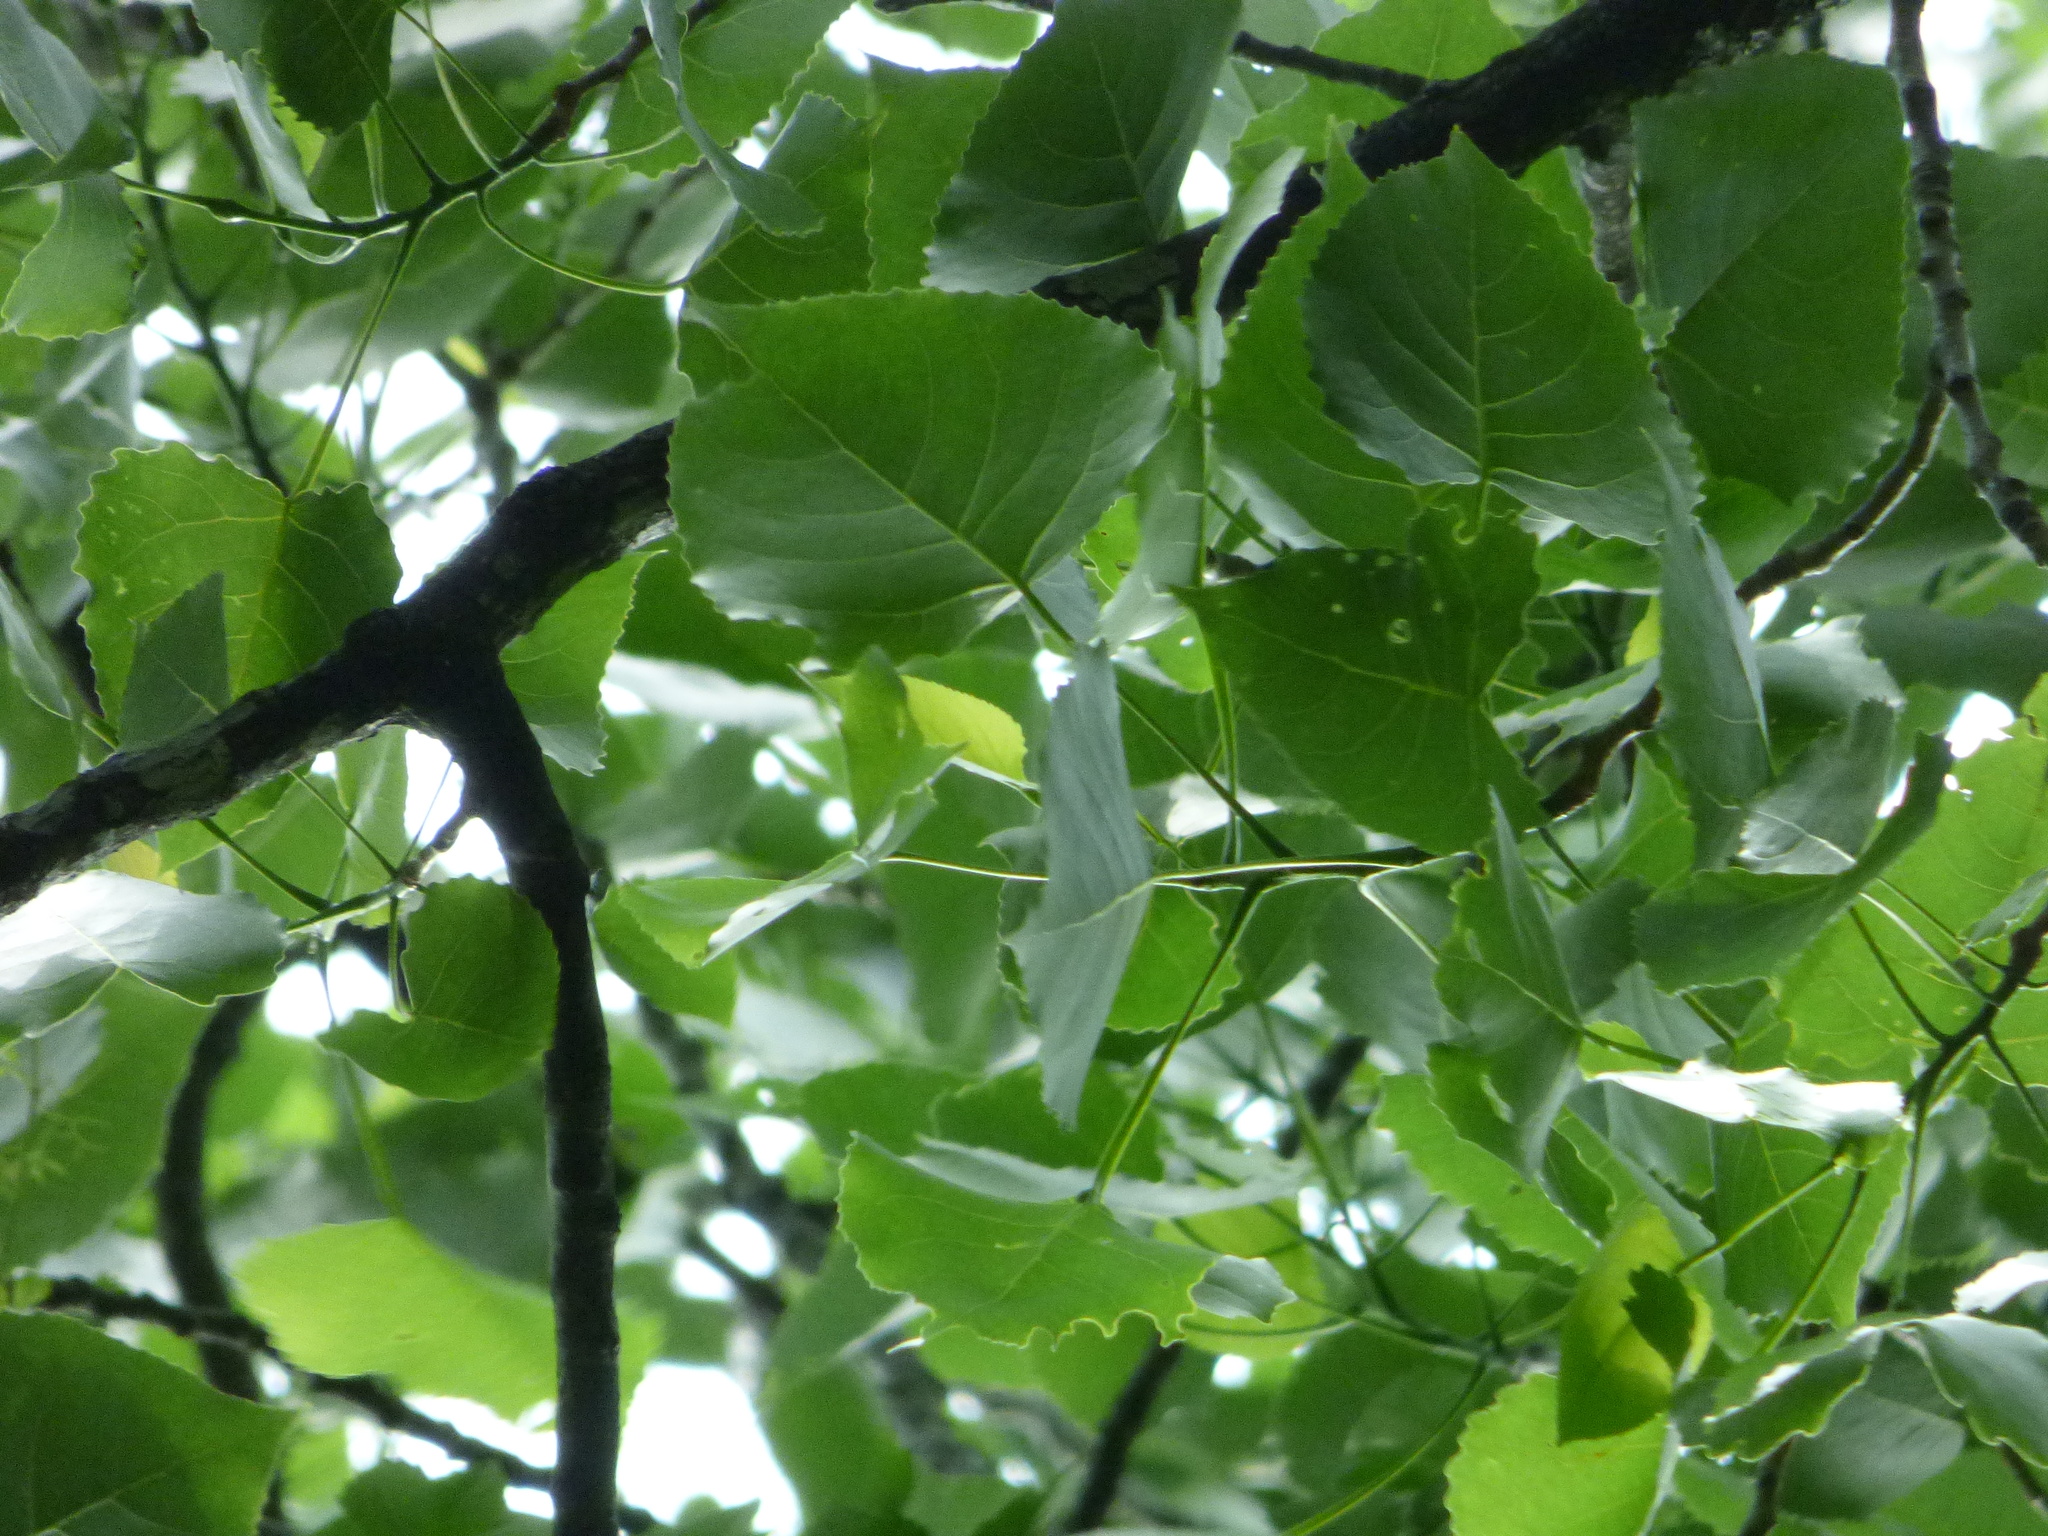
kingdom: Plantae
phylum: Tracheophyta
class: Magnoliopsida
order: Malpighiales
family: Salicaceae
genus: Populus
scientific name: Populus deltoides
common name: Eastern cottonwood
